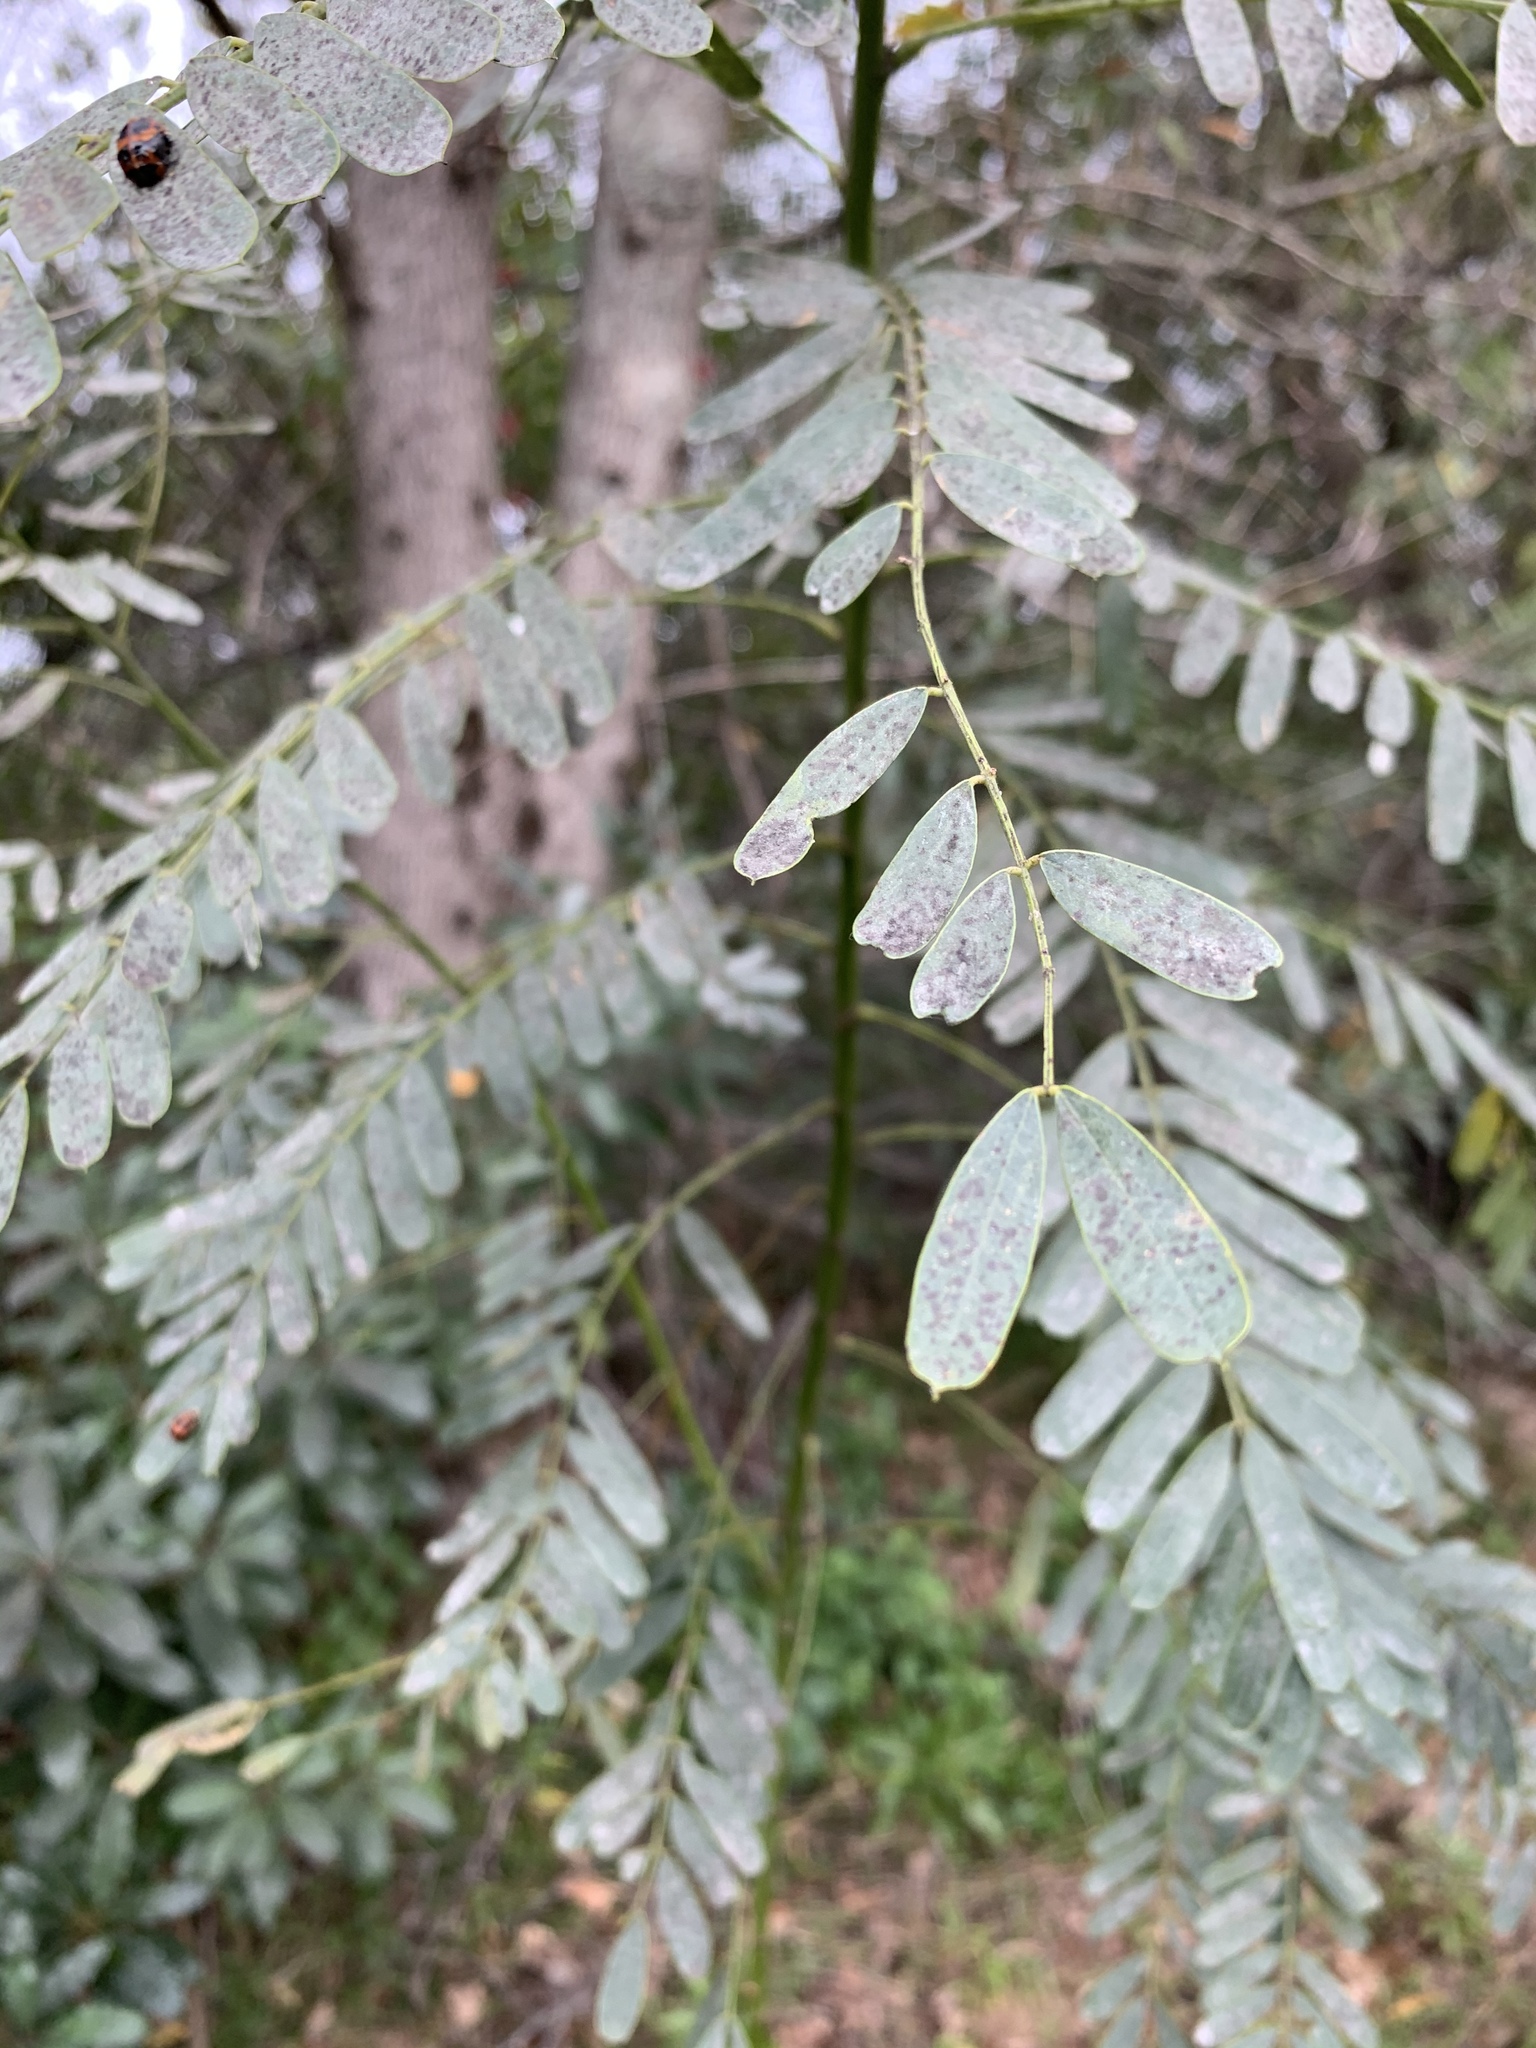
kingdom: Plantae
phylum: Tracheophyta
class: Magnoliopsida
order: Fabales
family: Fabaceae
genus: Sesbania
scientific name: Sesbania punicea
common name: Rattlebox
